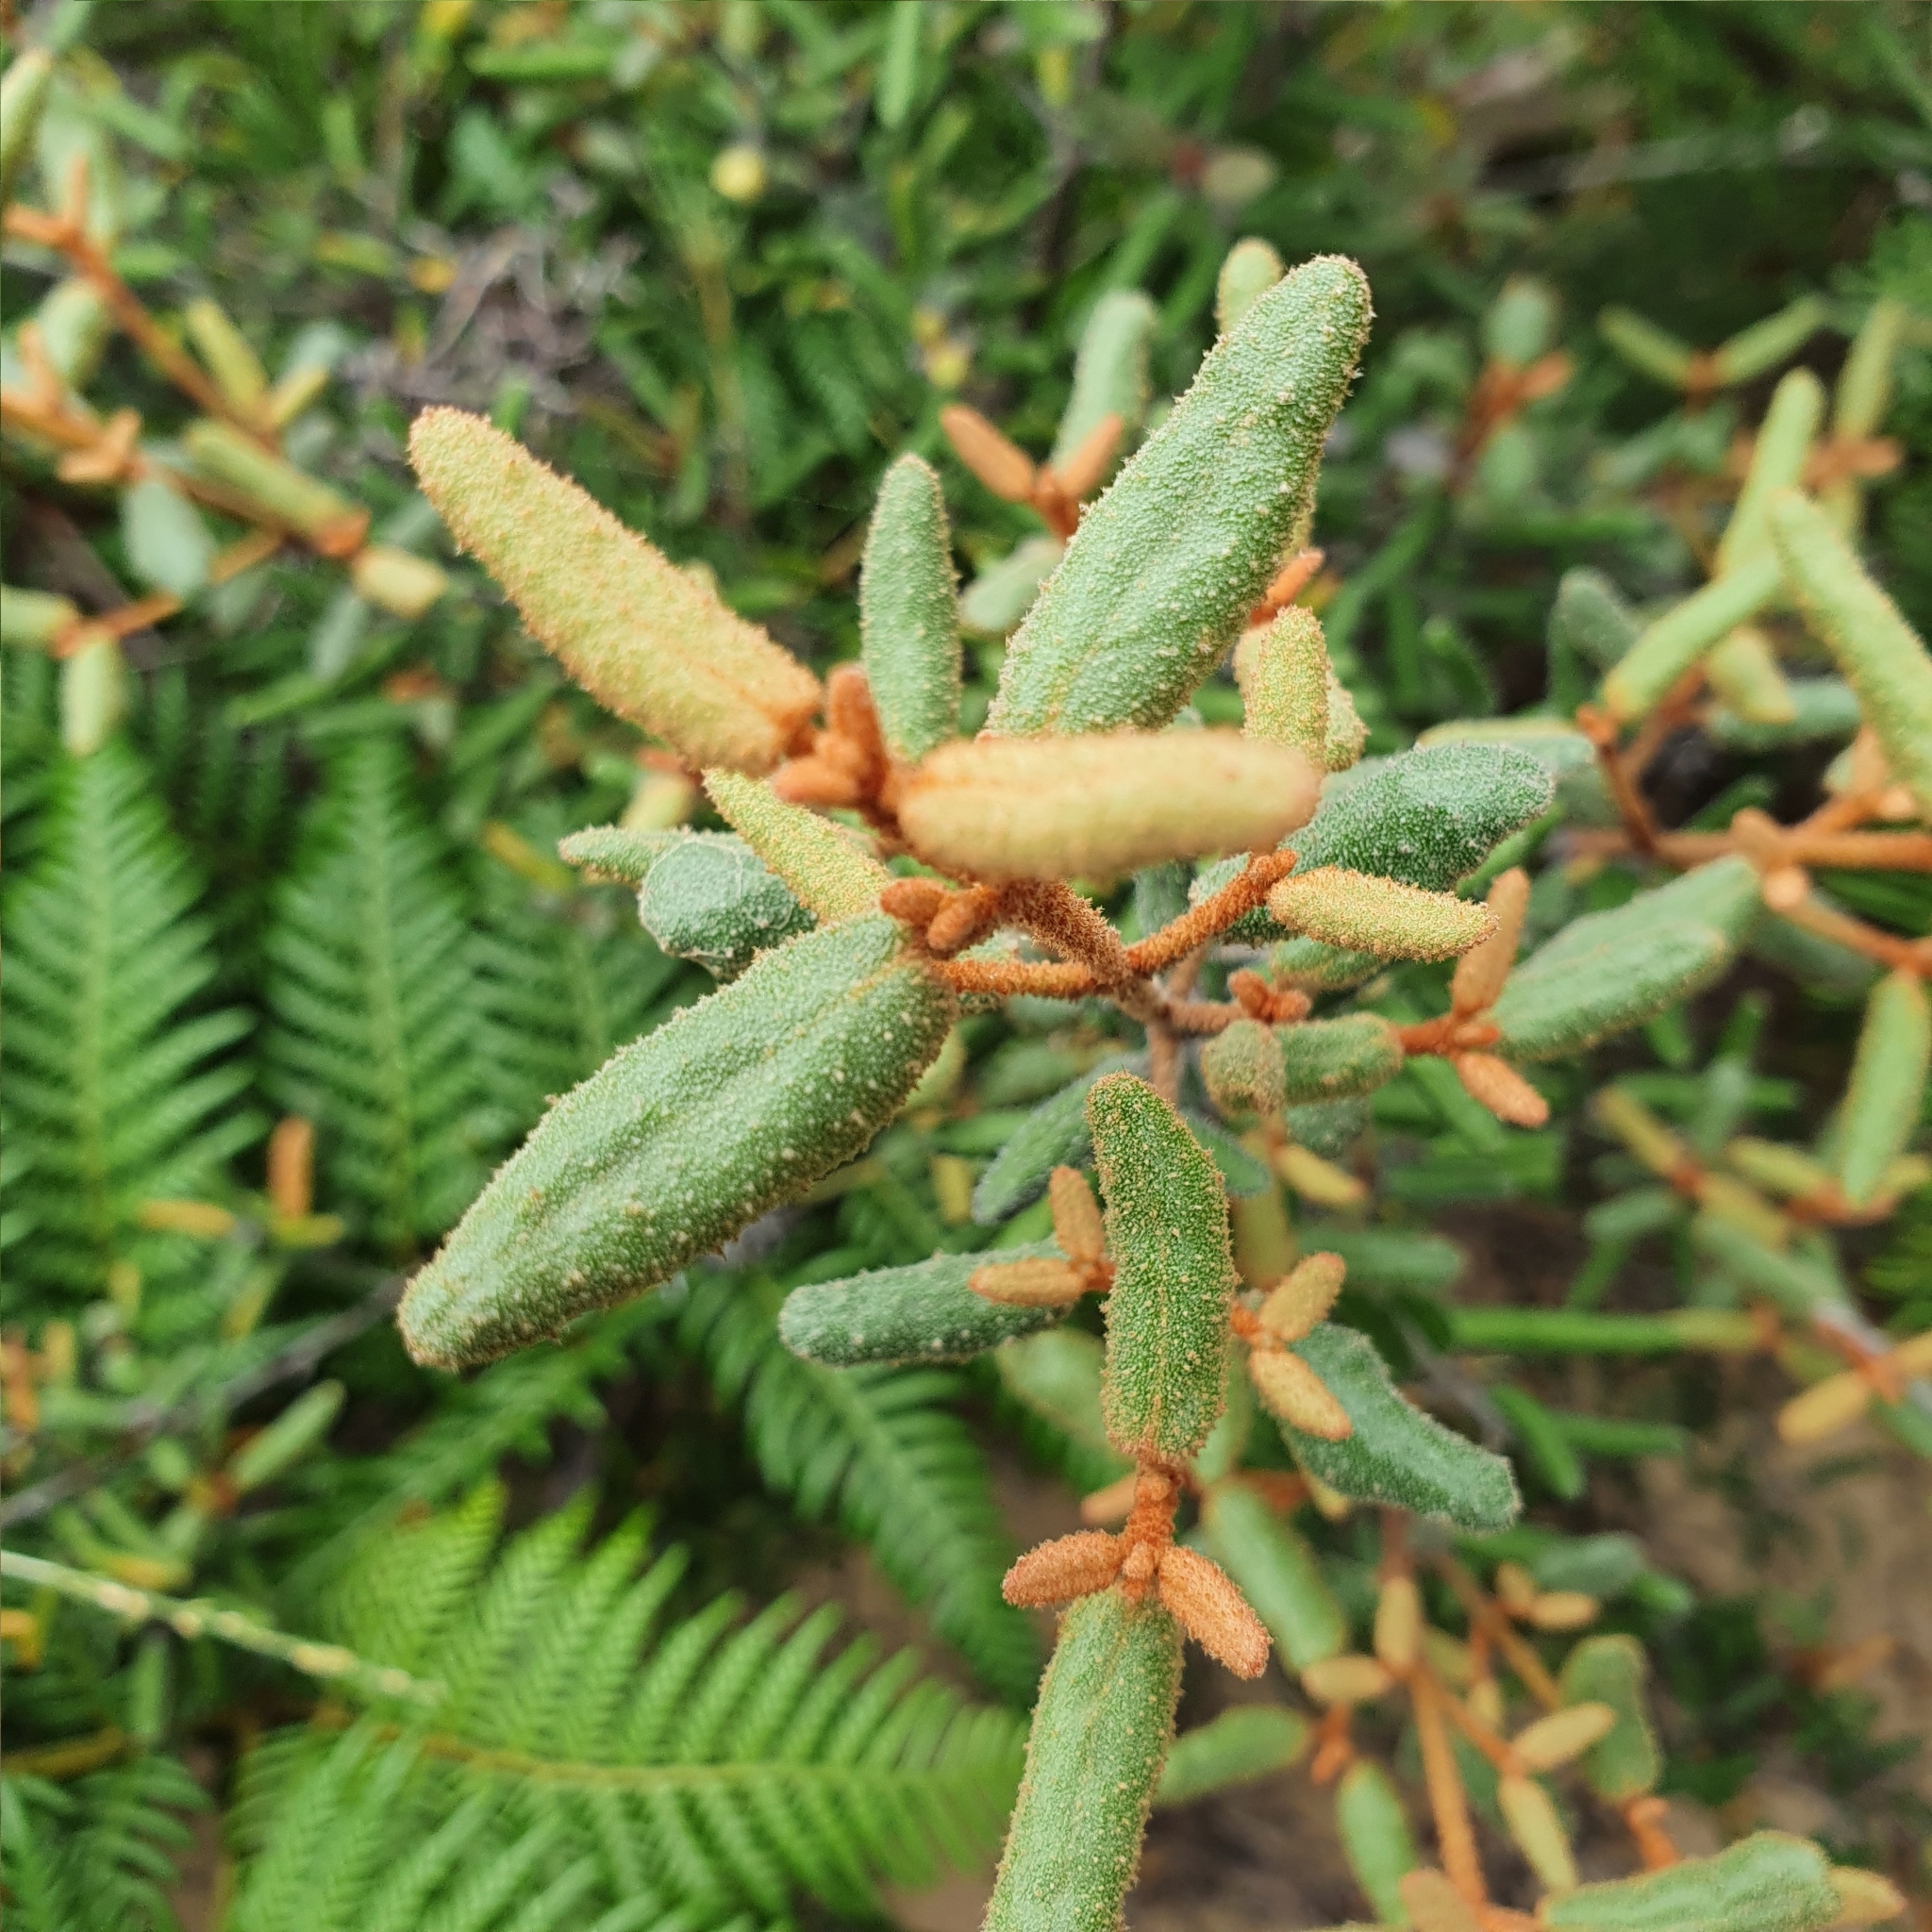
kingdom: Plantae
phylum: Tracheophyta
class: Magnoliopsida
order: Sapindales
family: Rutaceae
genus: Correa
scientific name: Correa reflexa
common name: Common correa
